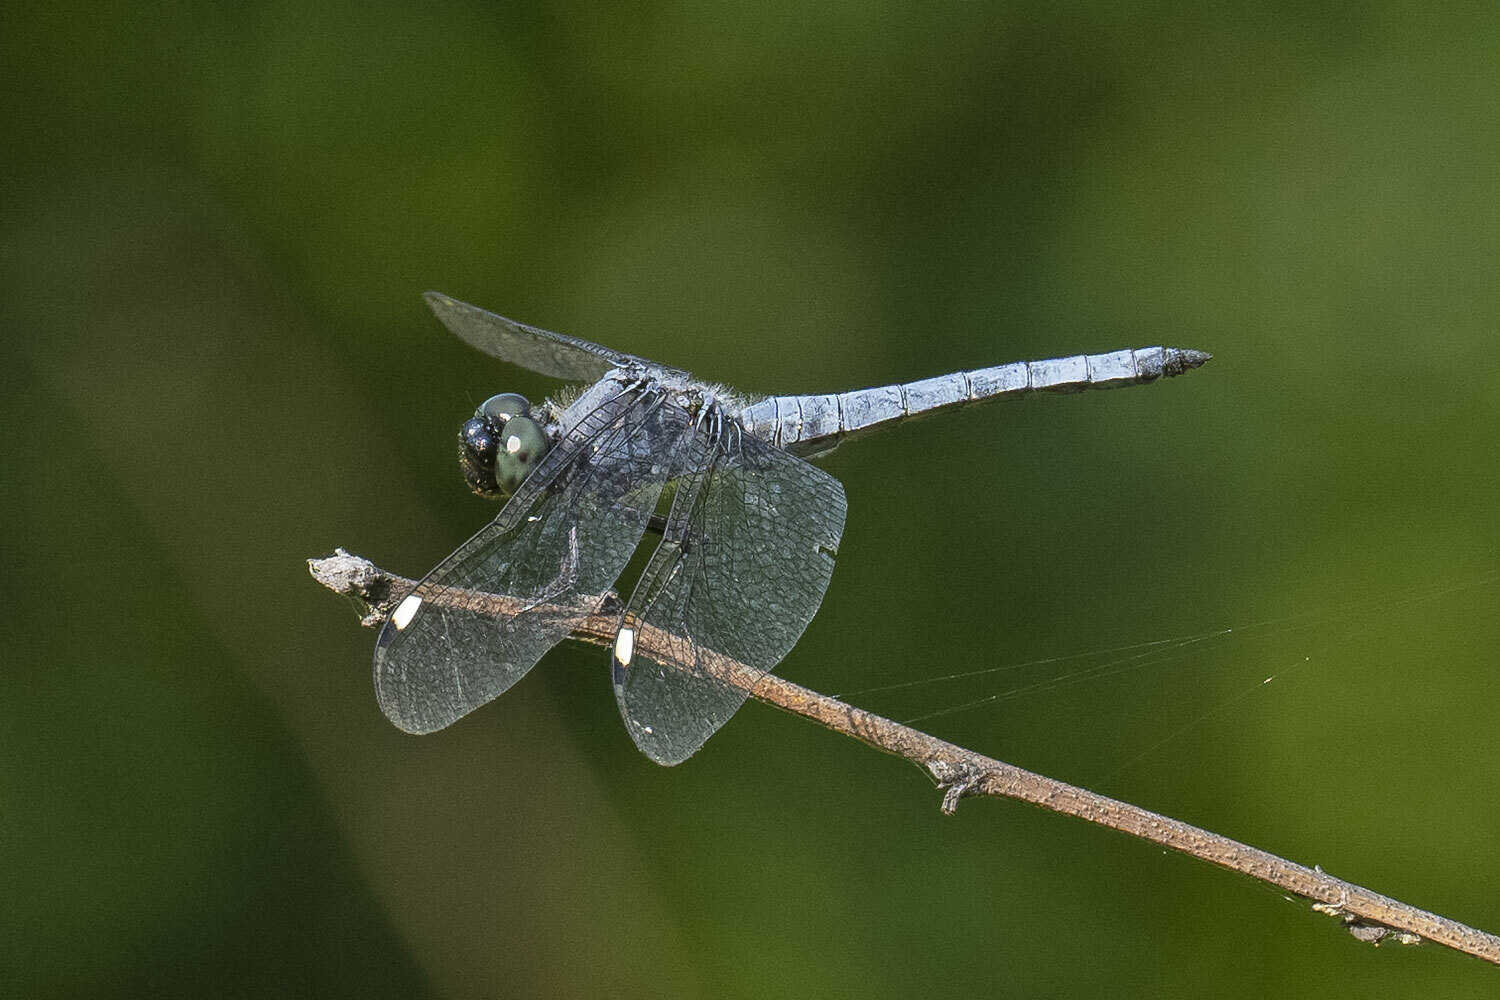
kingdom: Animalia
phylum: Arthropoda
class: Insecta
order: Odonata
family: Libellulidae
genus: Libellula
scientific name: Libellula cyanea
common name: Spangled skimmer
